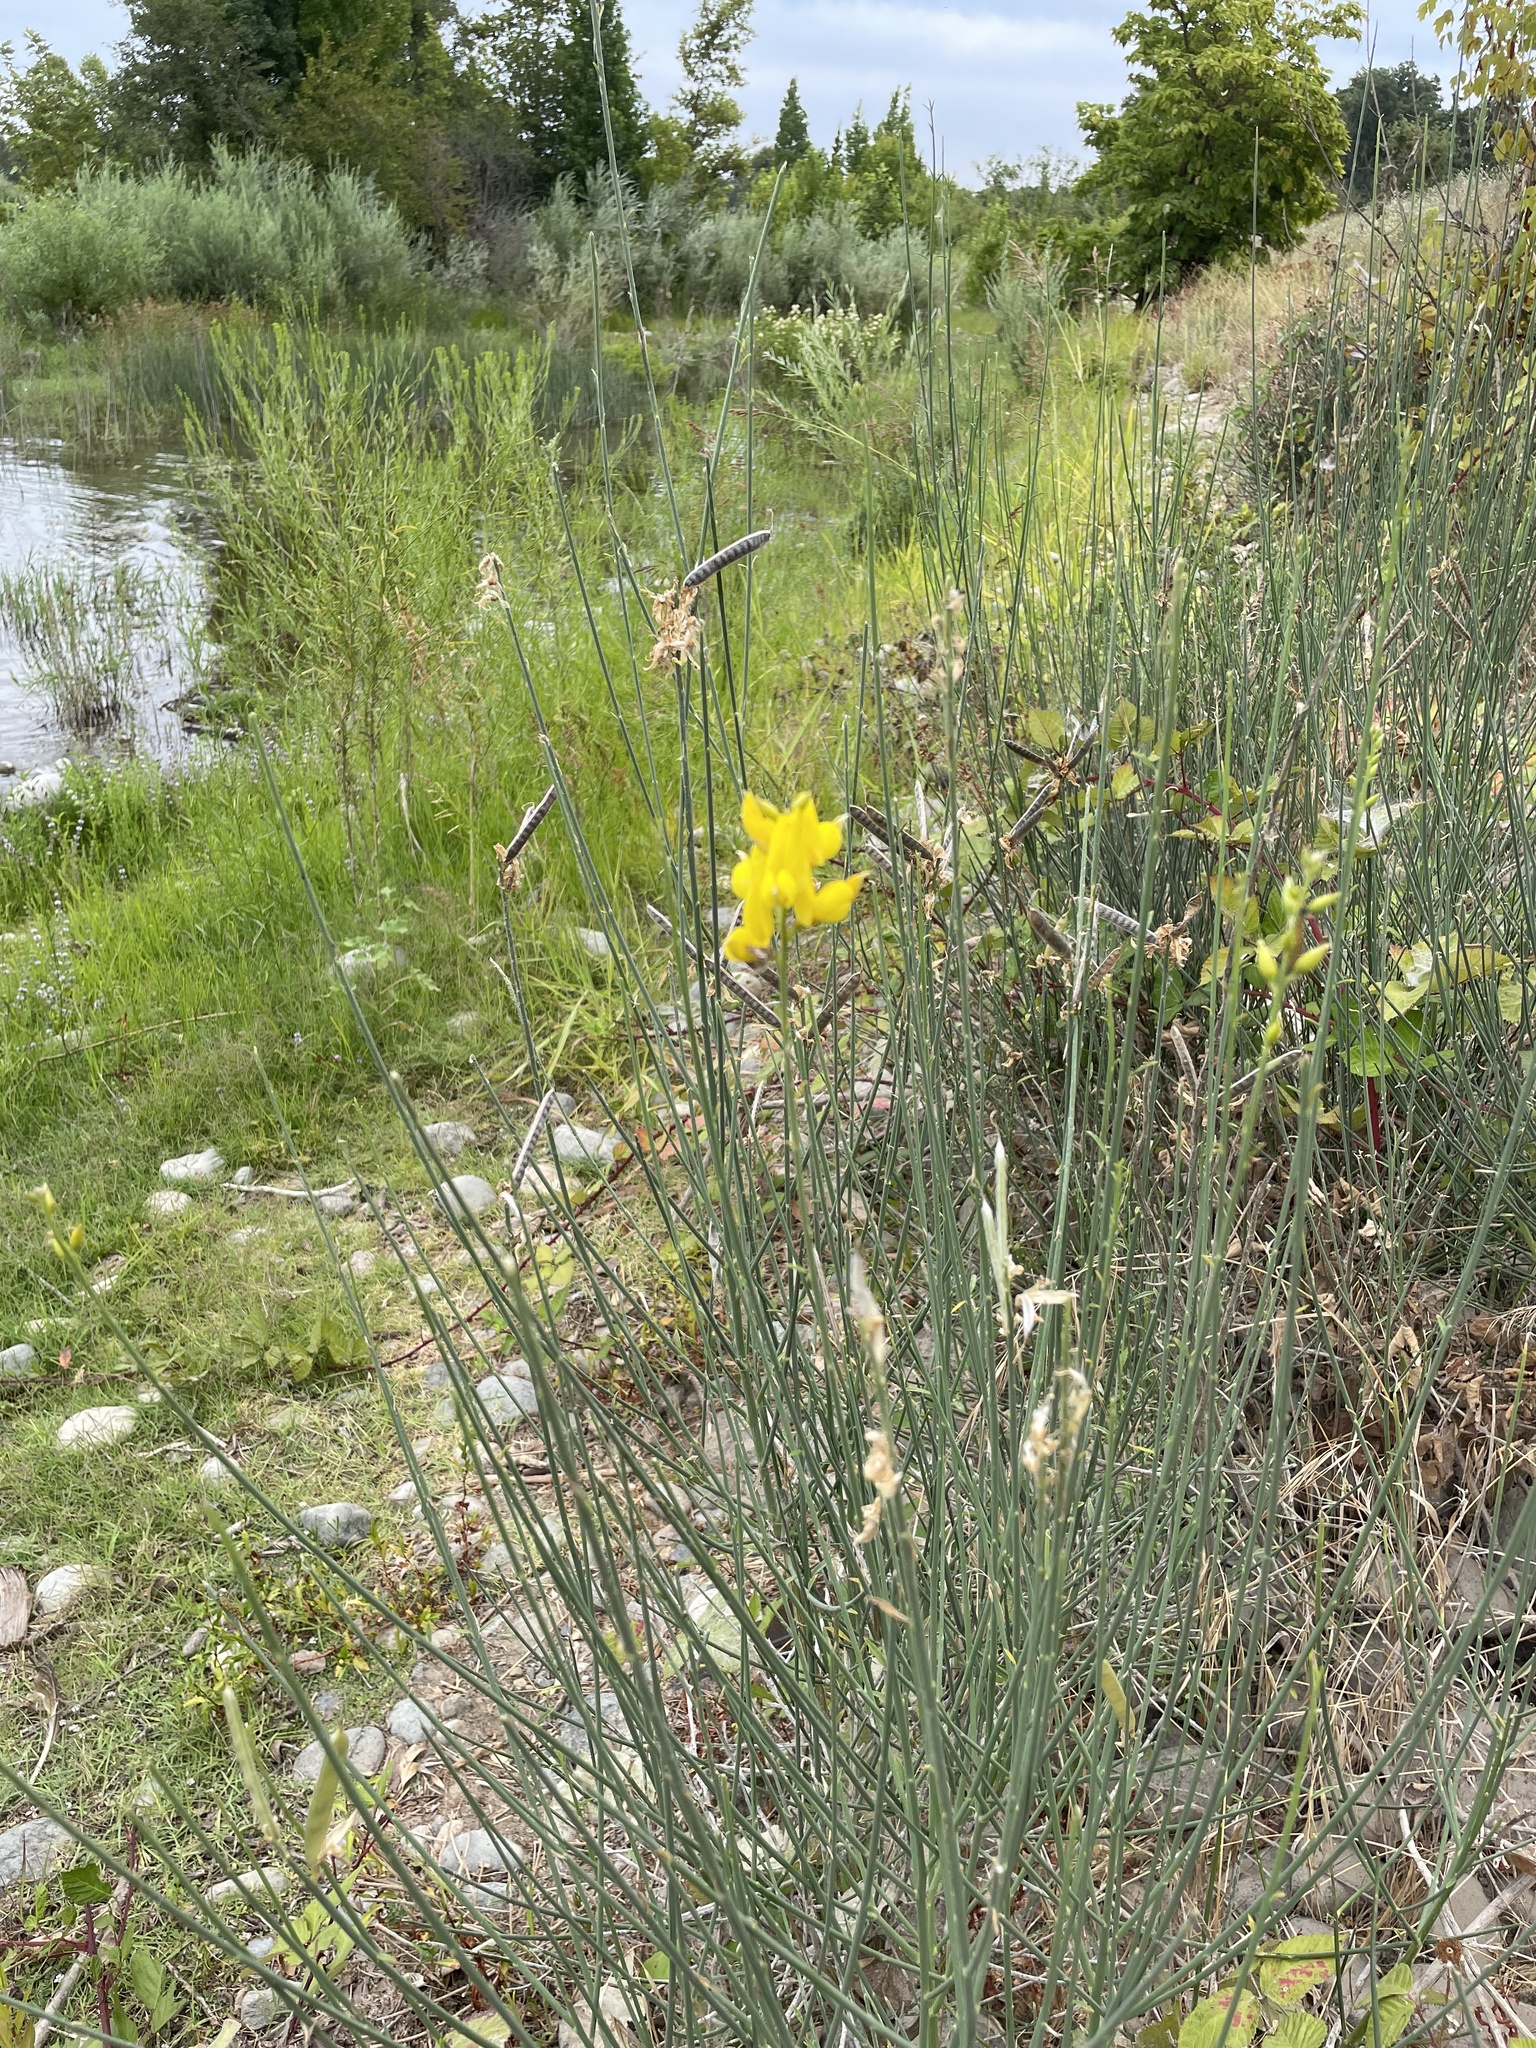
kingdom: Plantae
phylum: Tracheophyta
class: Magnoliopsida
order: Fabales
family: Fabaceae
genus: Spartium
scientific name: Spartium junceum
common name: Spanish broom
